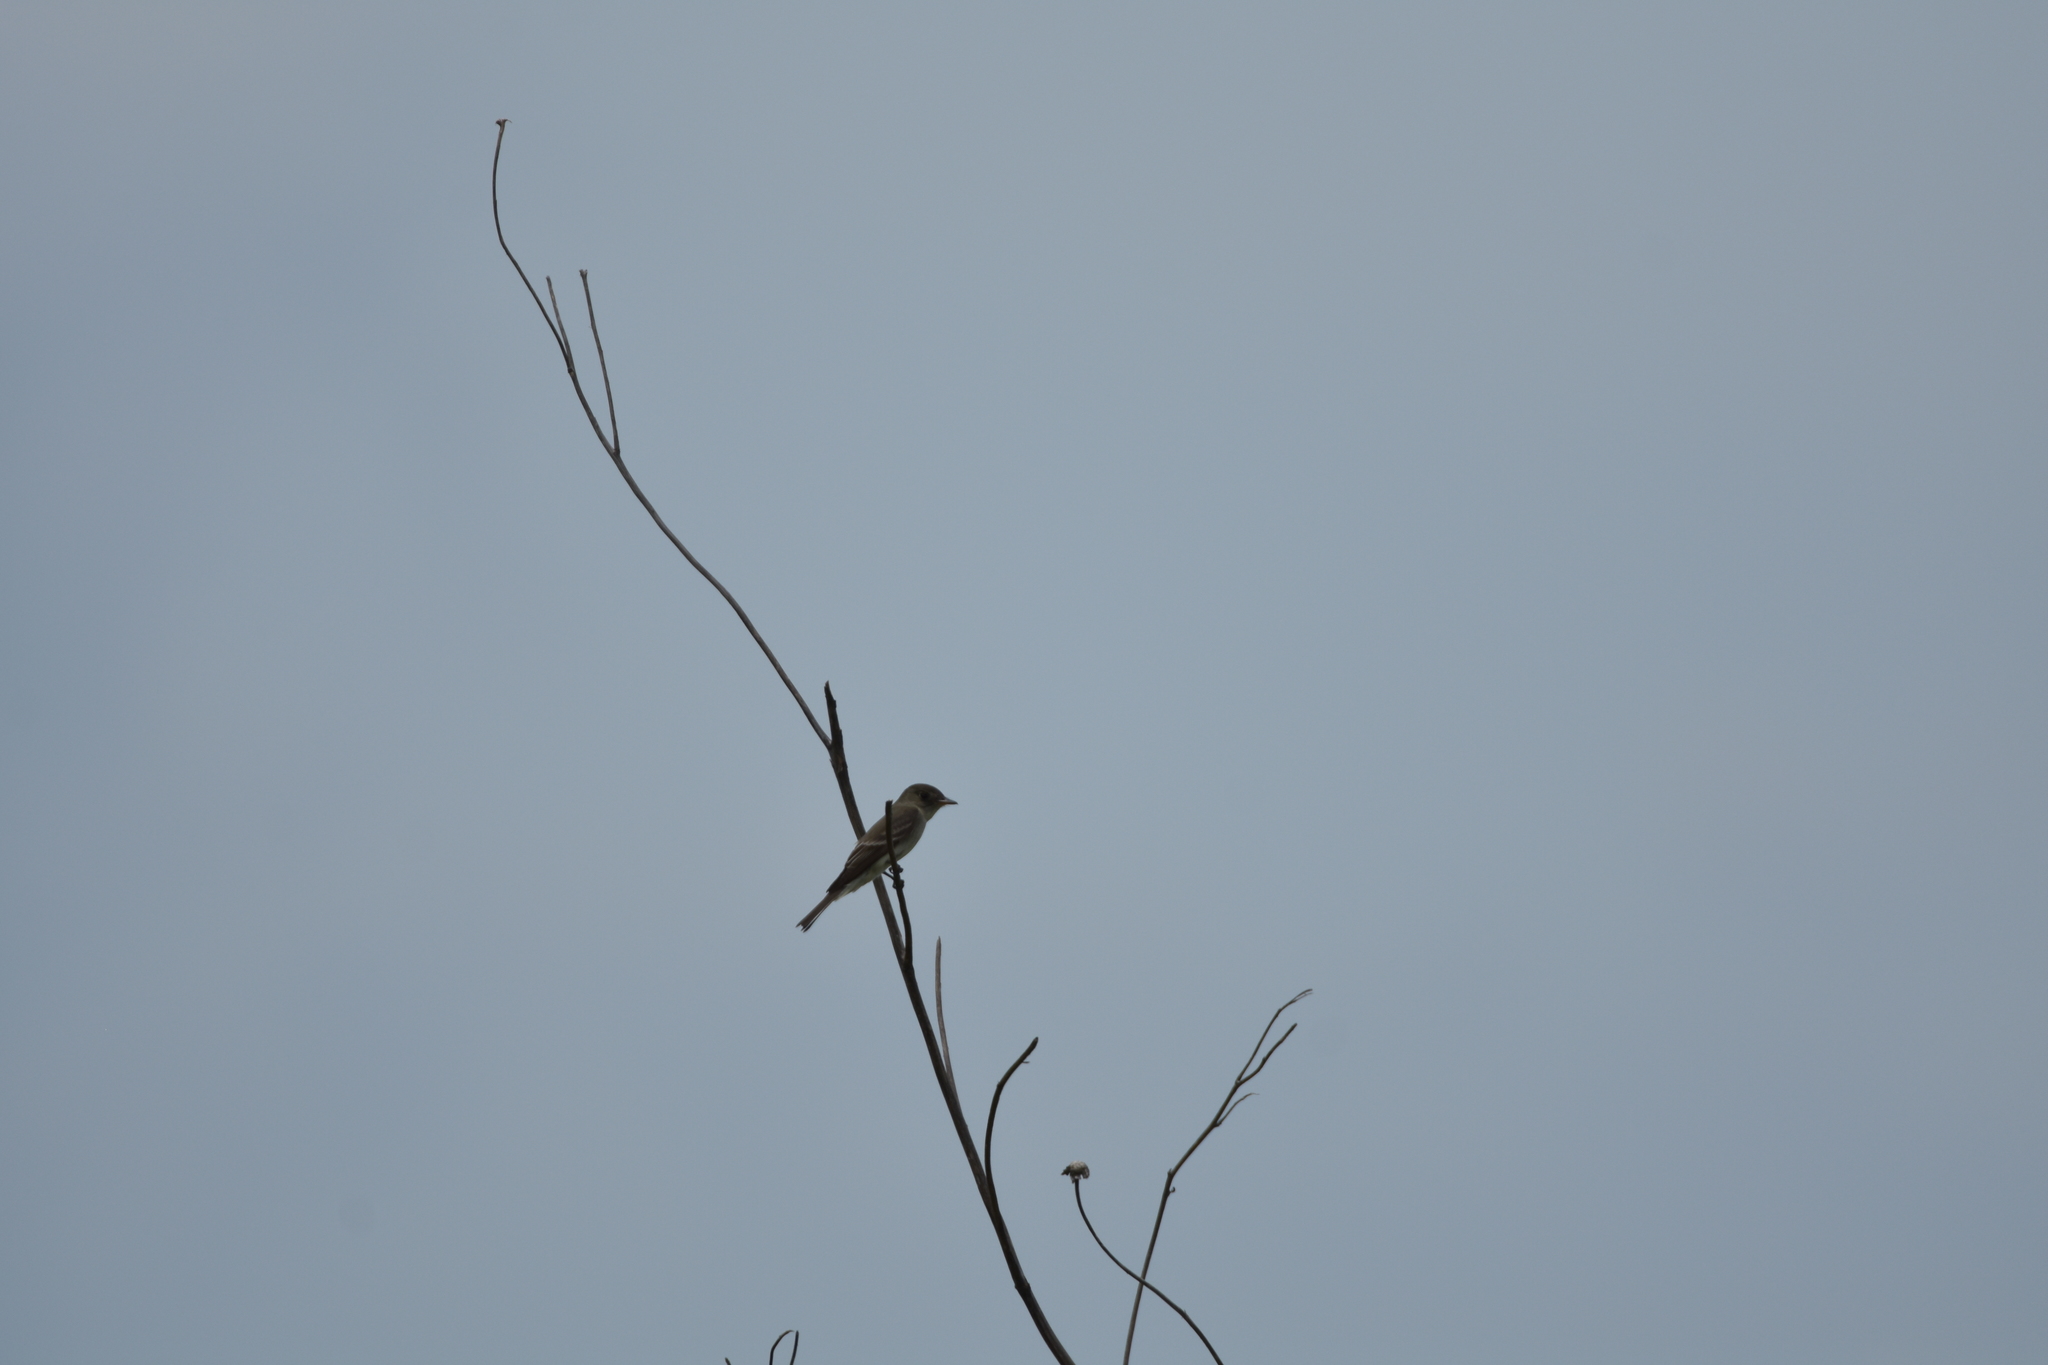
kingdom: Animalia
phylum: Chordata
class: Aves
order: Passeriformes
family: Tyrannidae
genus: Contopus
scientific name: Contopus virens
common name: Eastern wood-pewee
